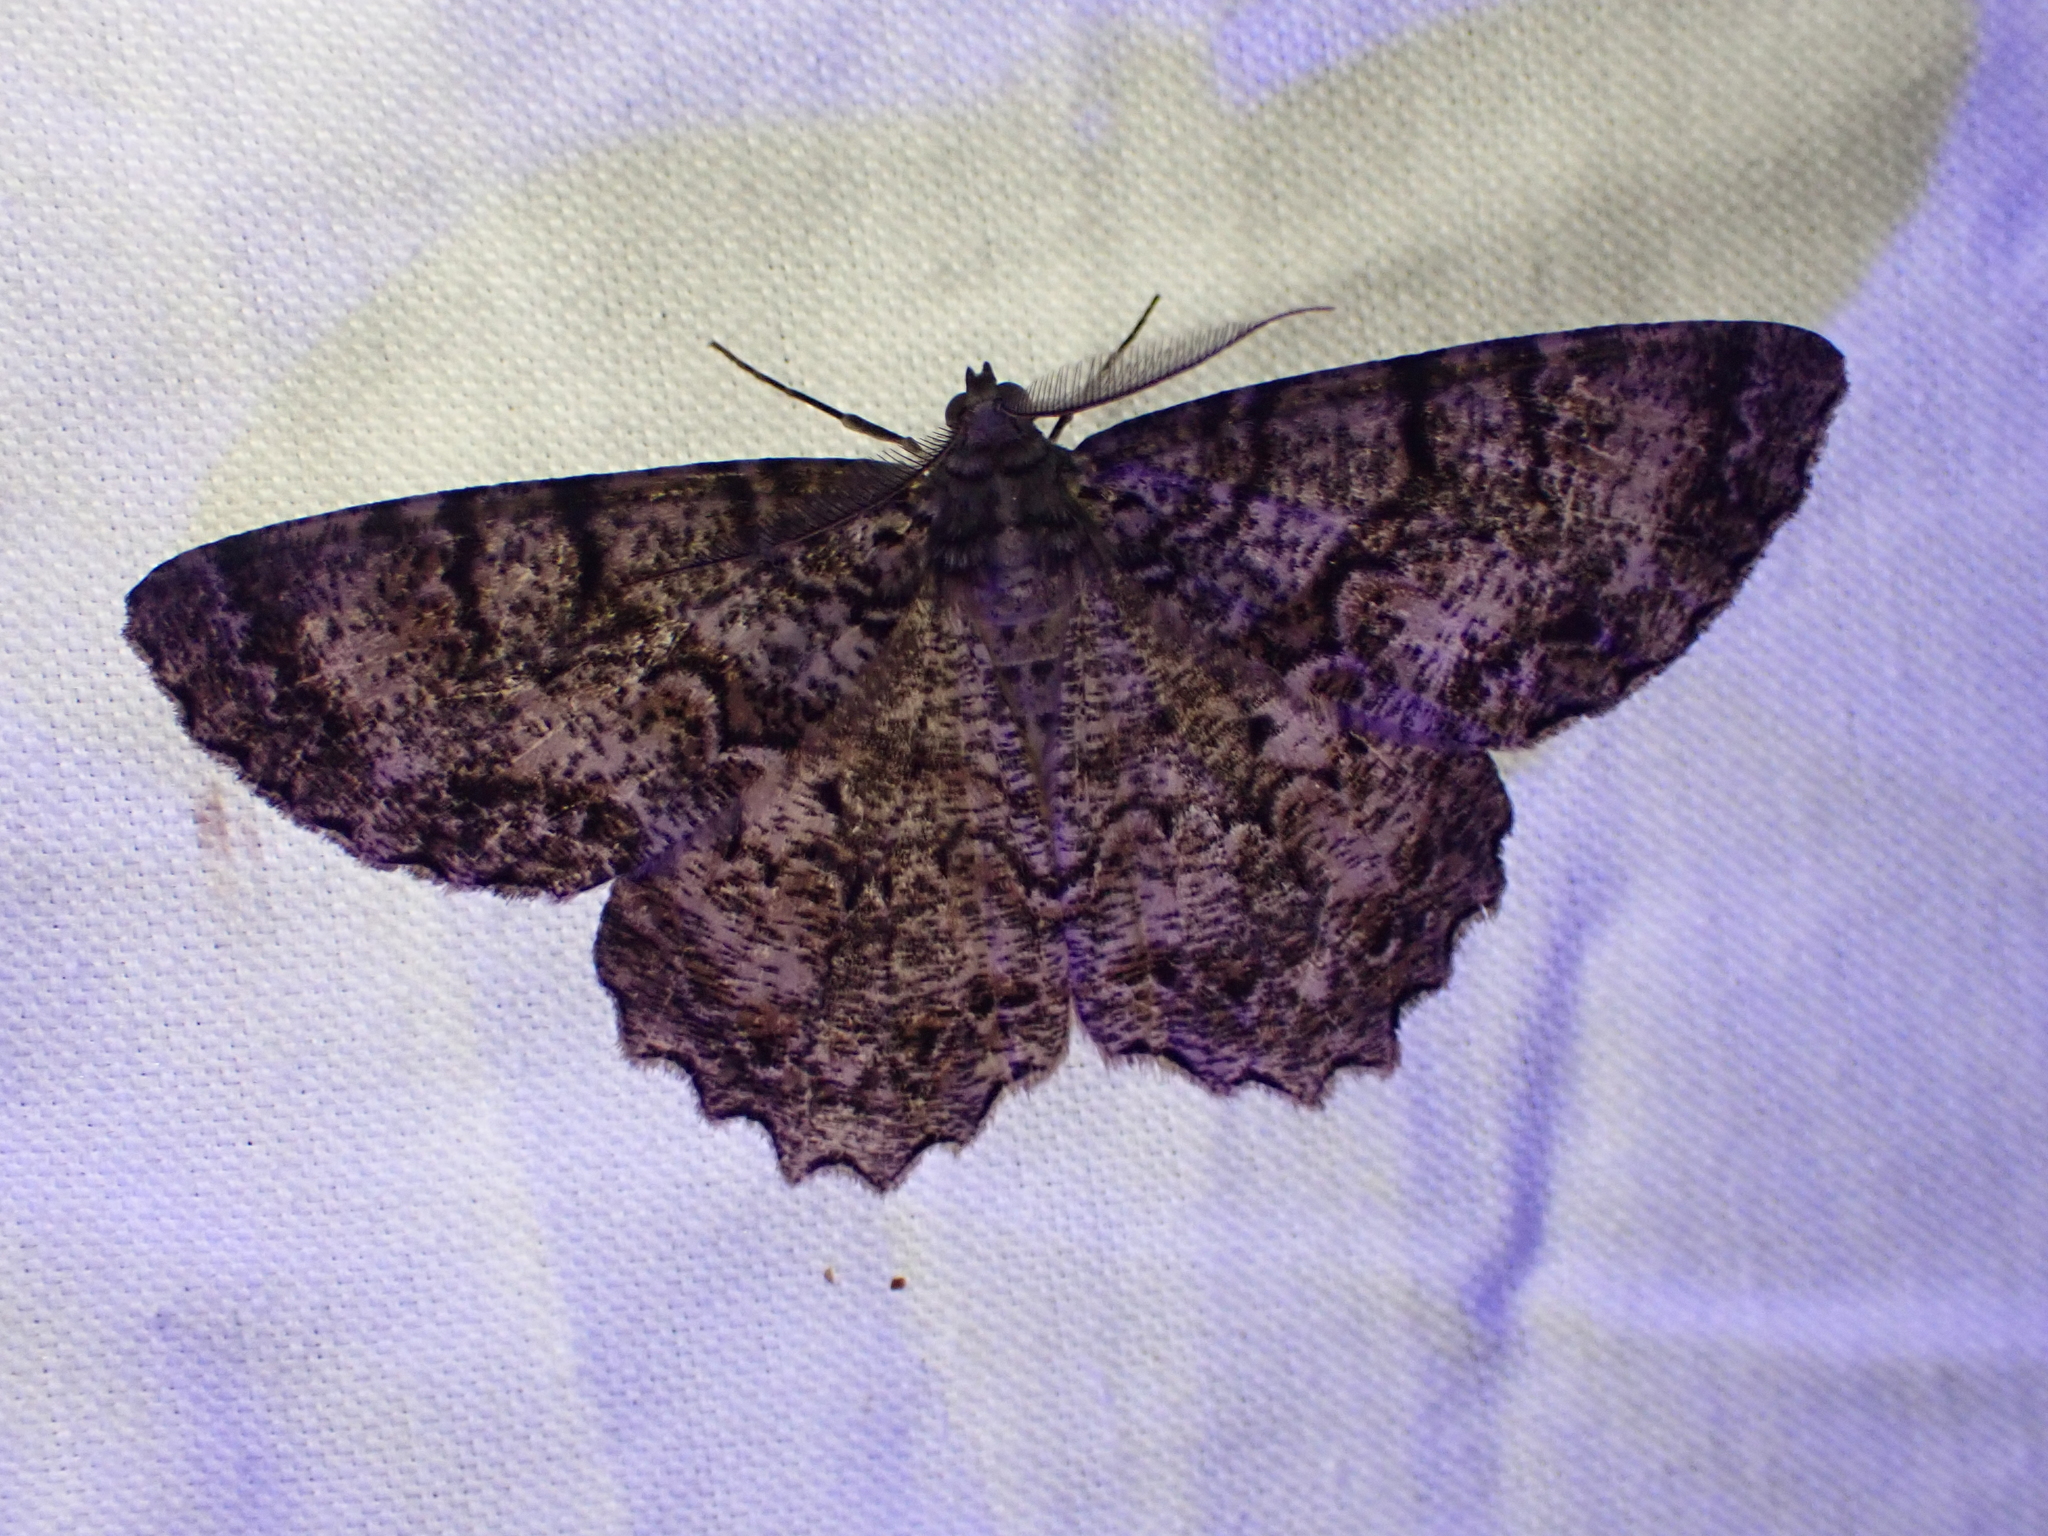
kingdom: Animalia
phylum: Arthropoda
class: Insecta
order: Lepidoptera
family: Geometridae
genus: Epimecis
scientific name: Epimecis hortaria
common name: Tulip-tree beauty
